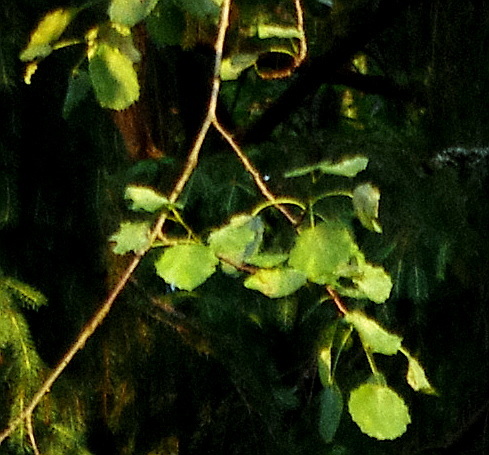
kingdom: Plantae
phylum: Tracheophyta
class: Magnoliopsida
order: Malpighiales
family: Salicaceae
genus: Populus
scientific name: Populus tremula
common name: European aspen
